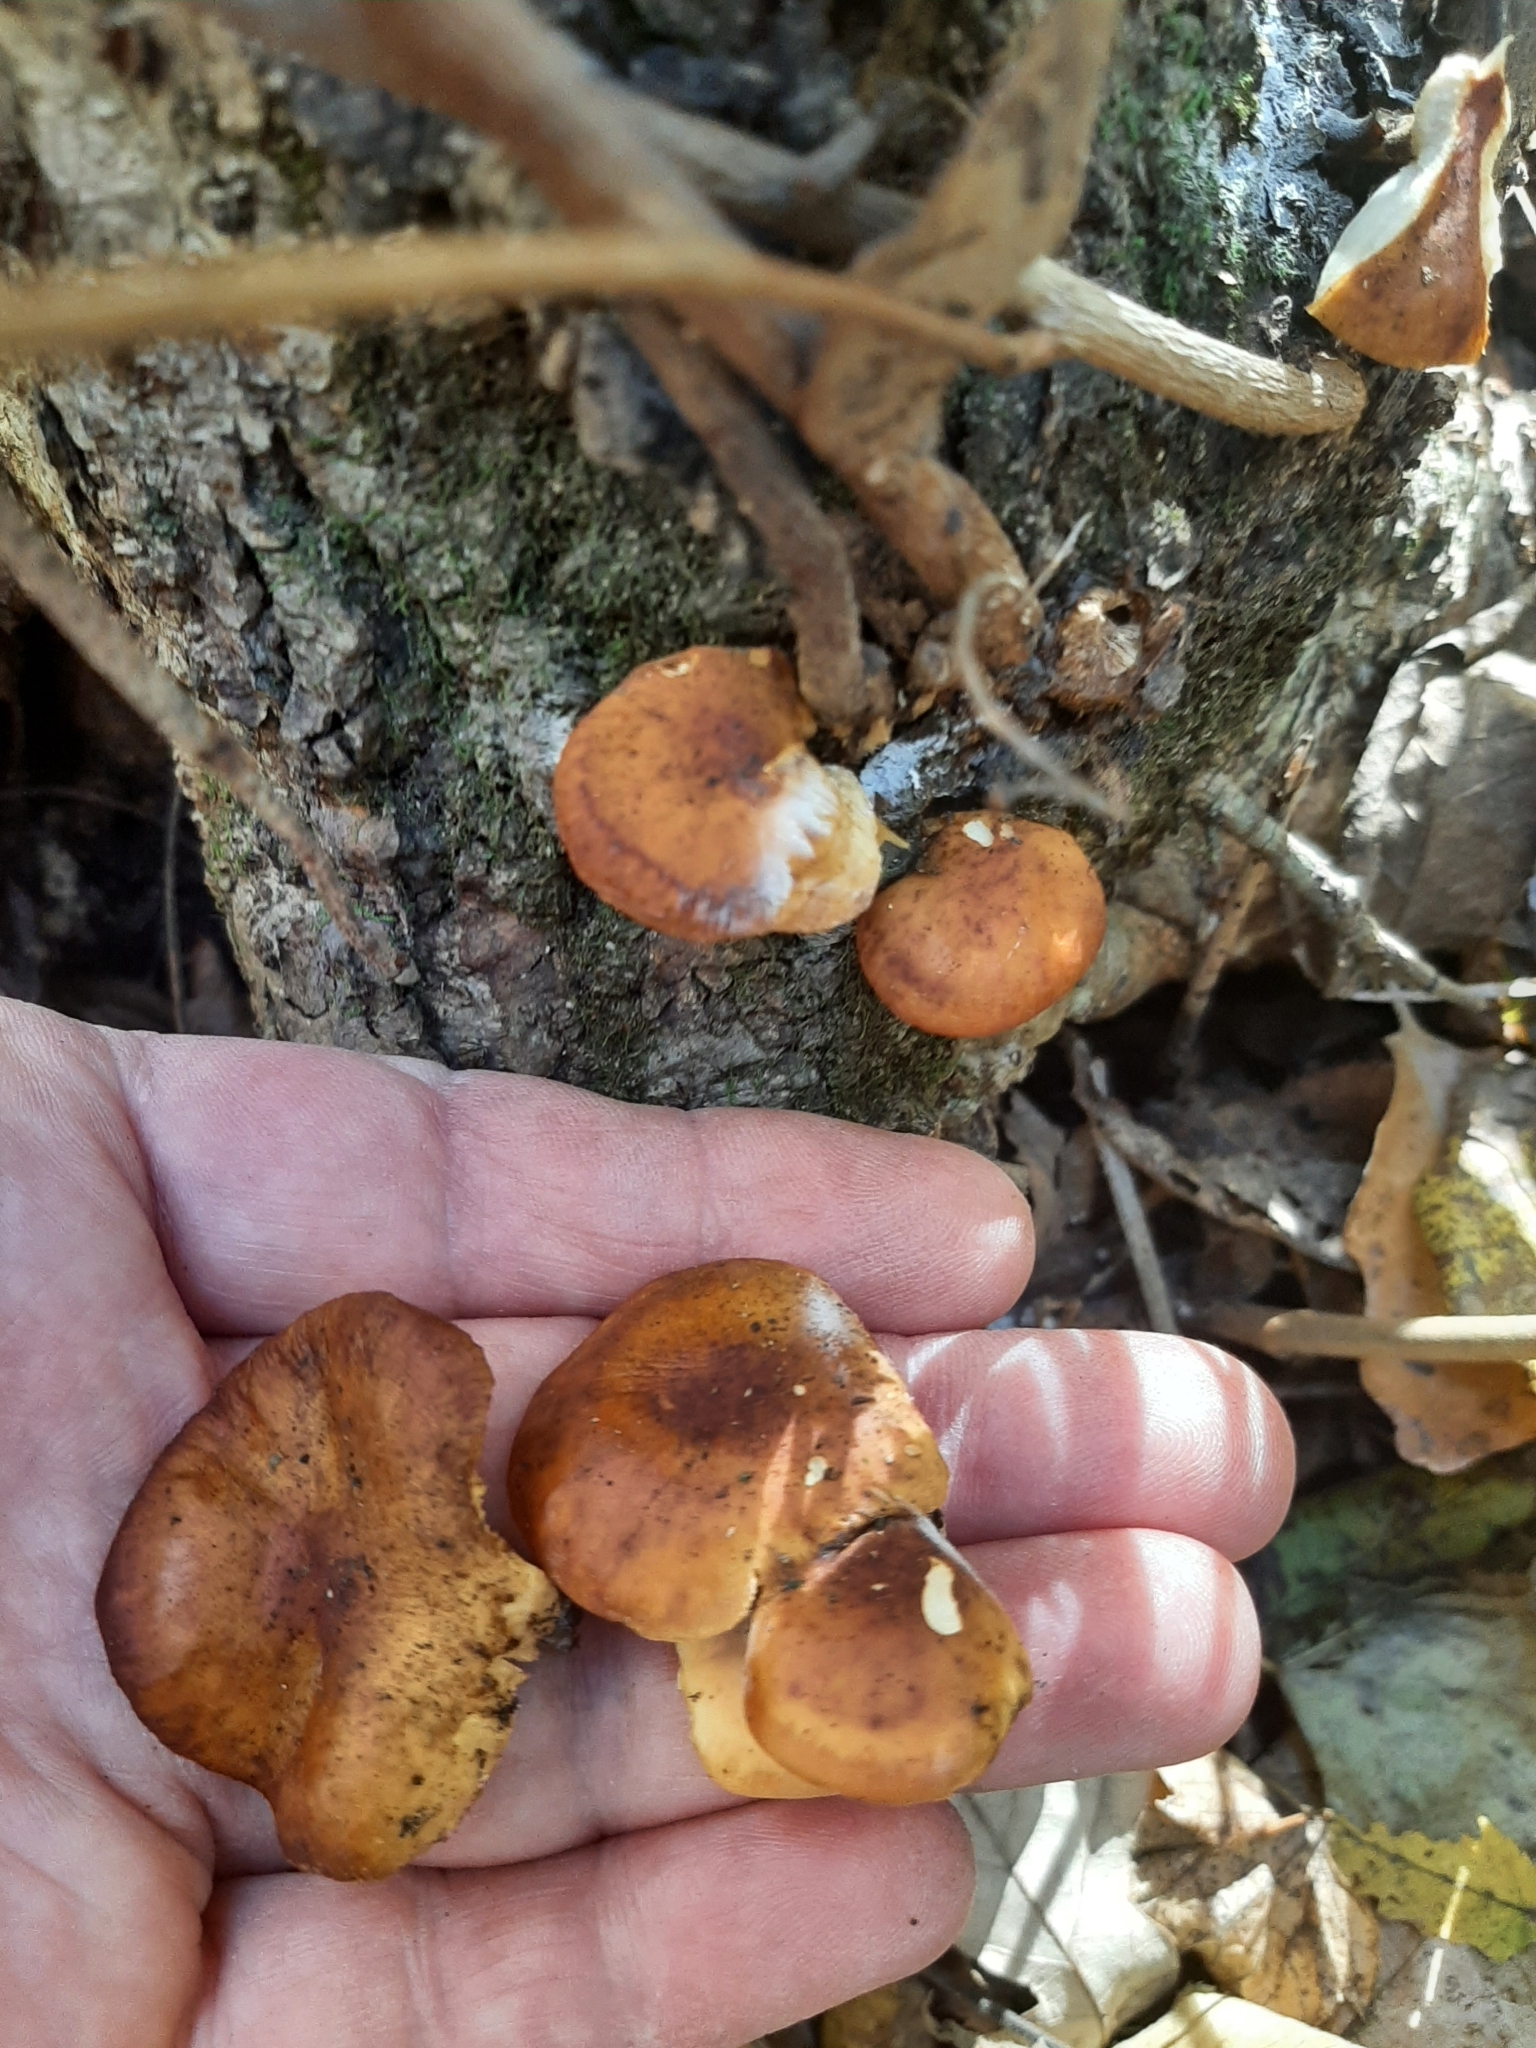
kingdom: Fungi
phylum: Basidiomycota
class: Agaricomycetes
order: Agaricales
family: Physalacriaceae
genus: Flammulina
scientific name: Flammulina velutipes
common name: Velvet shank
